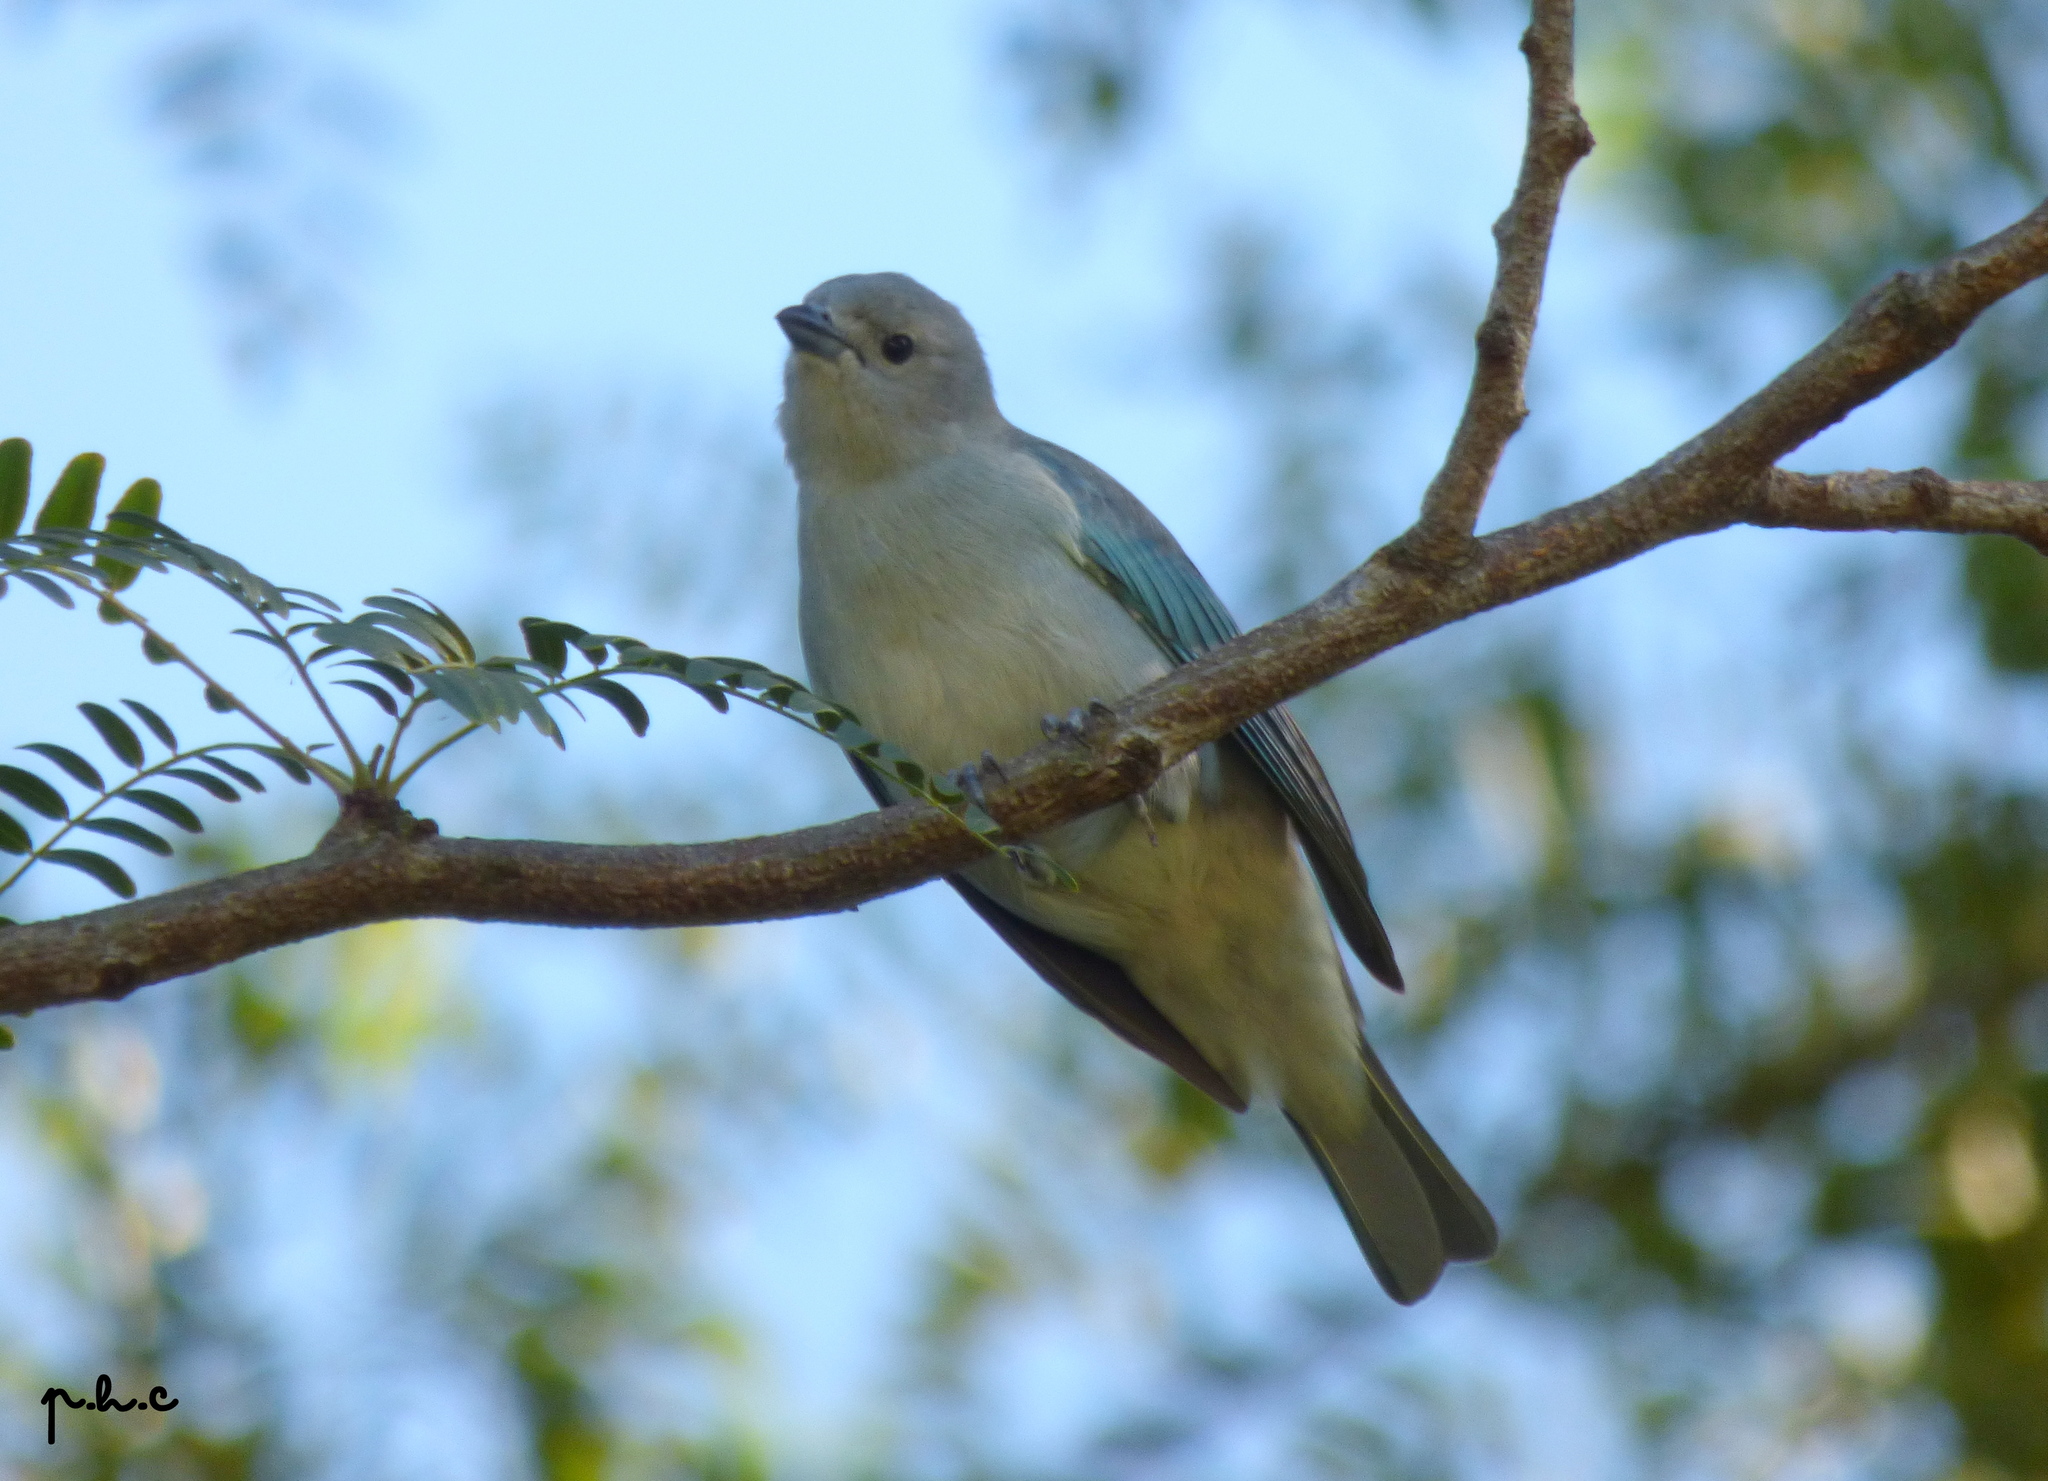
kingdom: Animalia
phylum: Chordata
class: Aves
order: Passeriformes
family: Thraupidae
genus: Thraupis
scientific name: Thraupis sayaca
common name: Sayaca tanager
